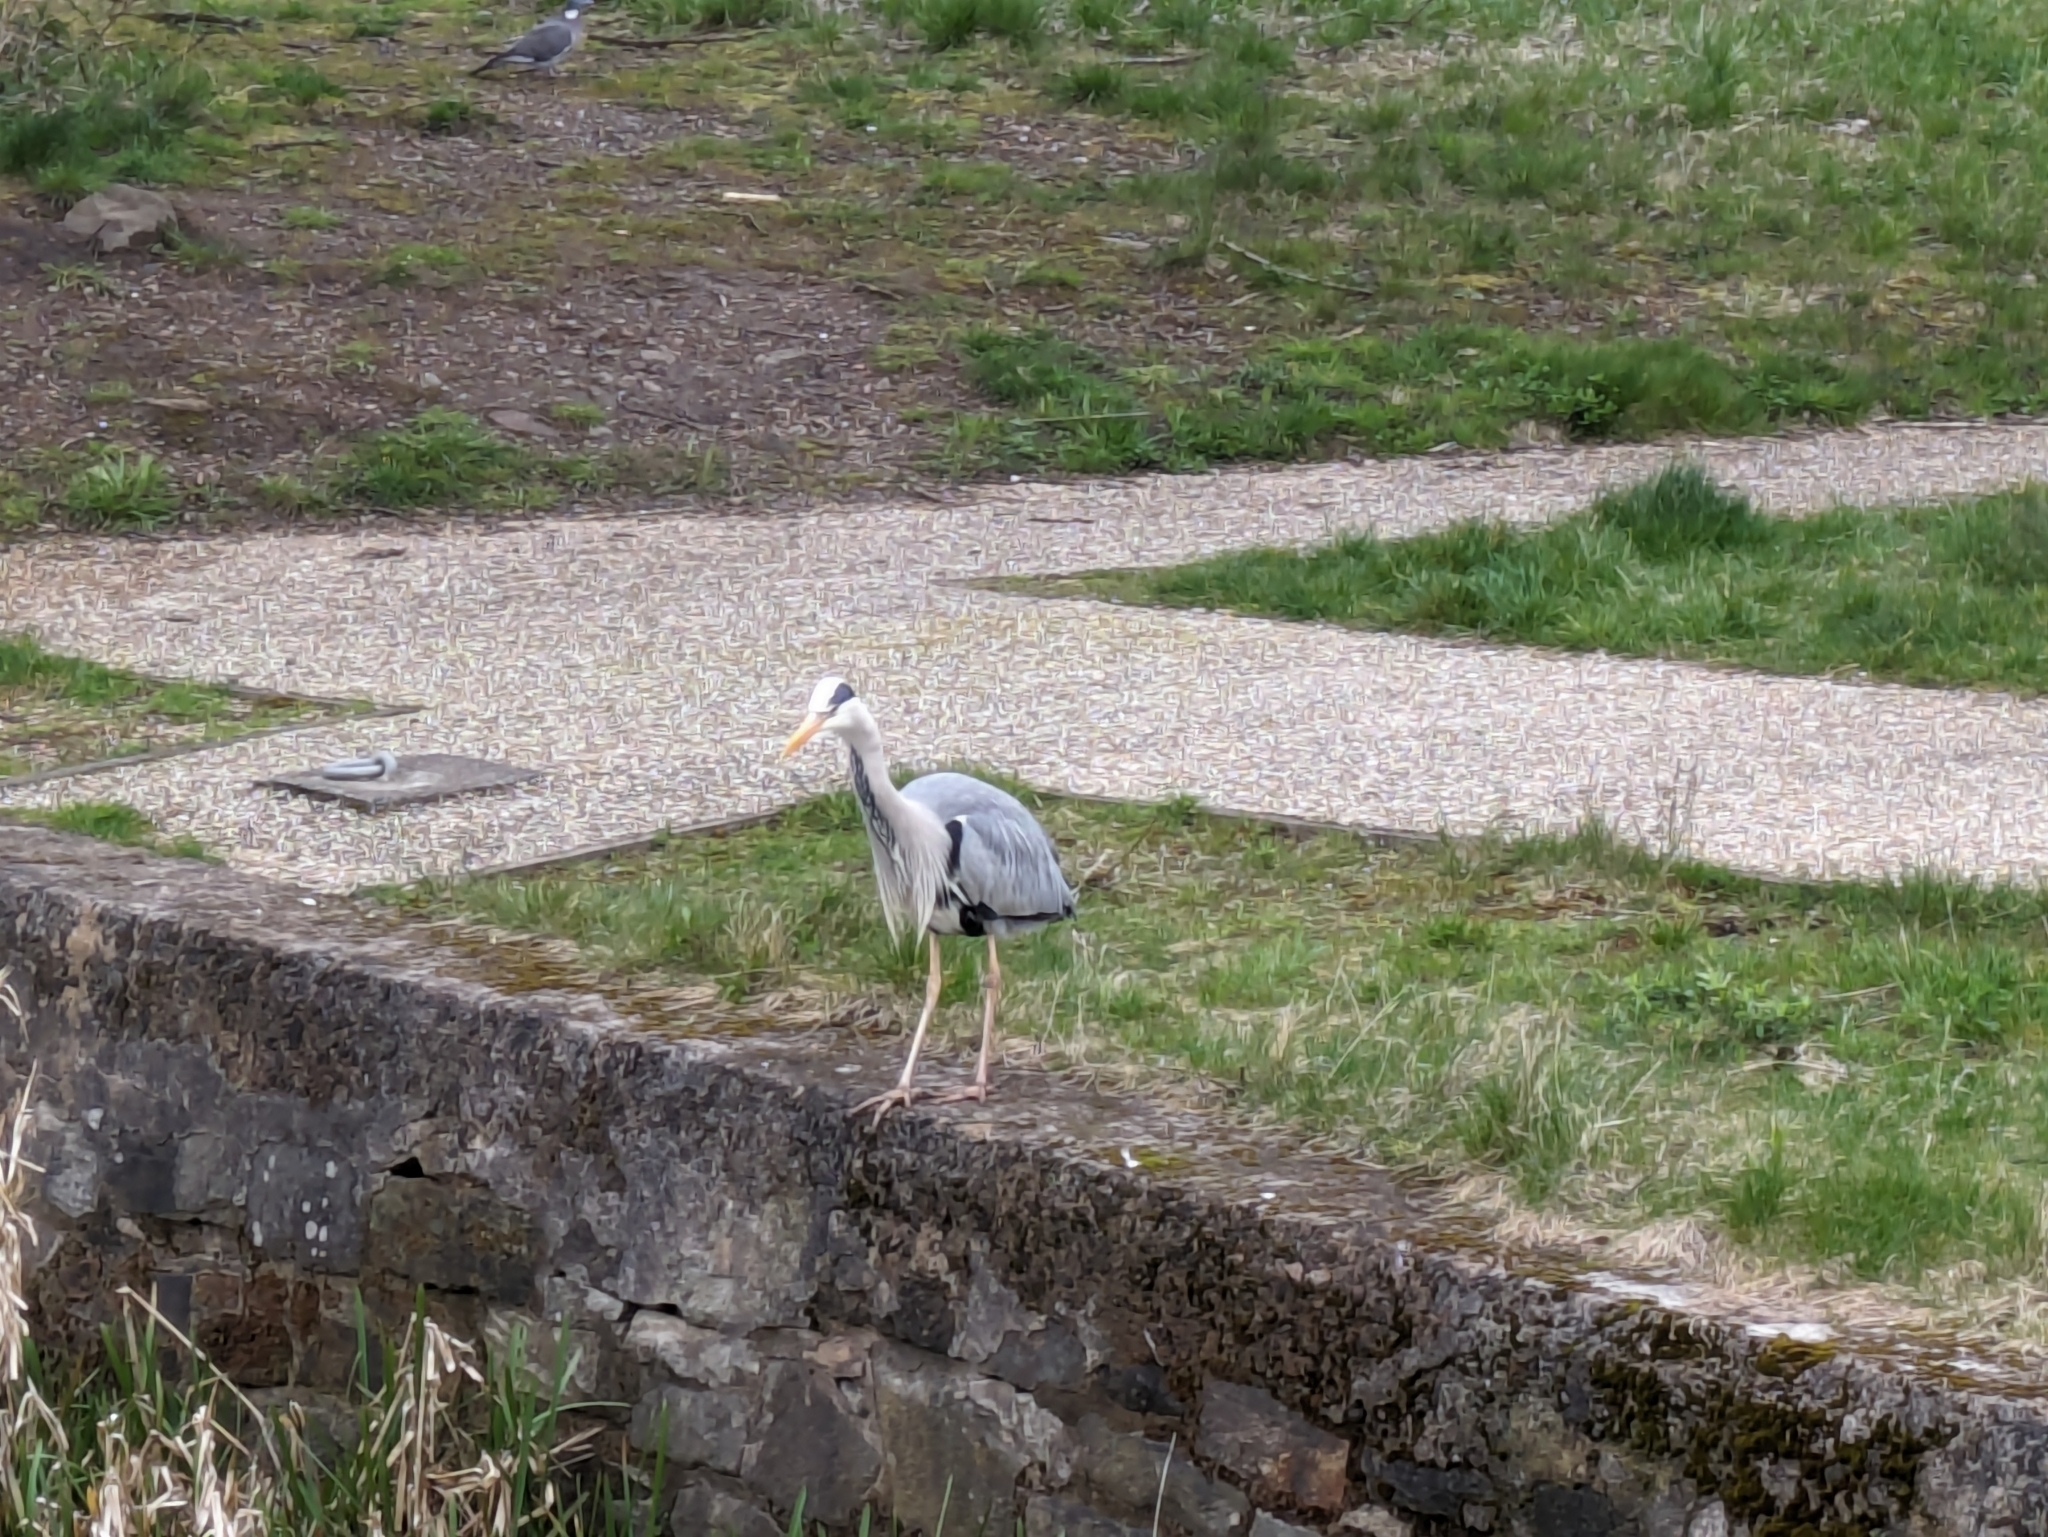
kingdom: Animalia
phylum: Chordata
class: Aves
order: Pelecaniformes
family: Ardeidae
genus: Ardea
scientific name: Ardea cinerea
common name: Grey heron
